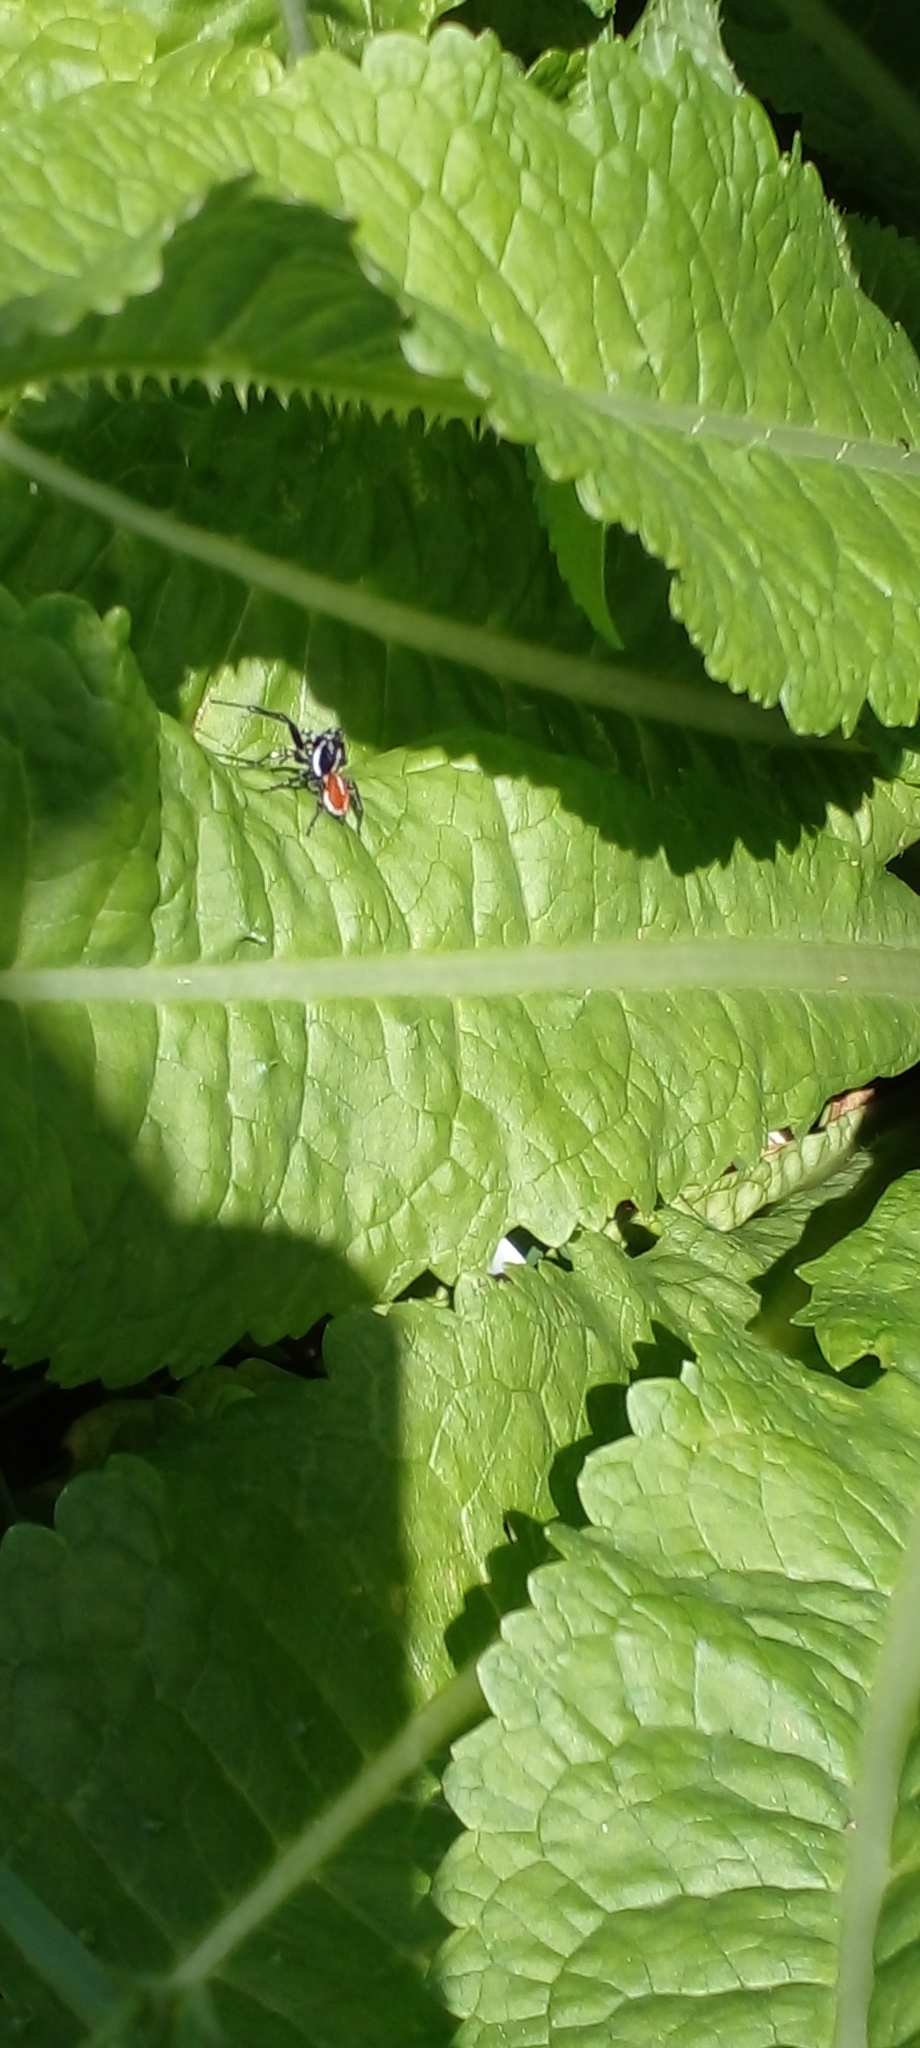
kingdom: Animalia
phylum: Arthropoda
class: Arachnida
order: Araneae
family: Salticidae
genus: Phiale
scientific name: Phiale roburifoliata
